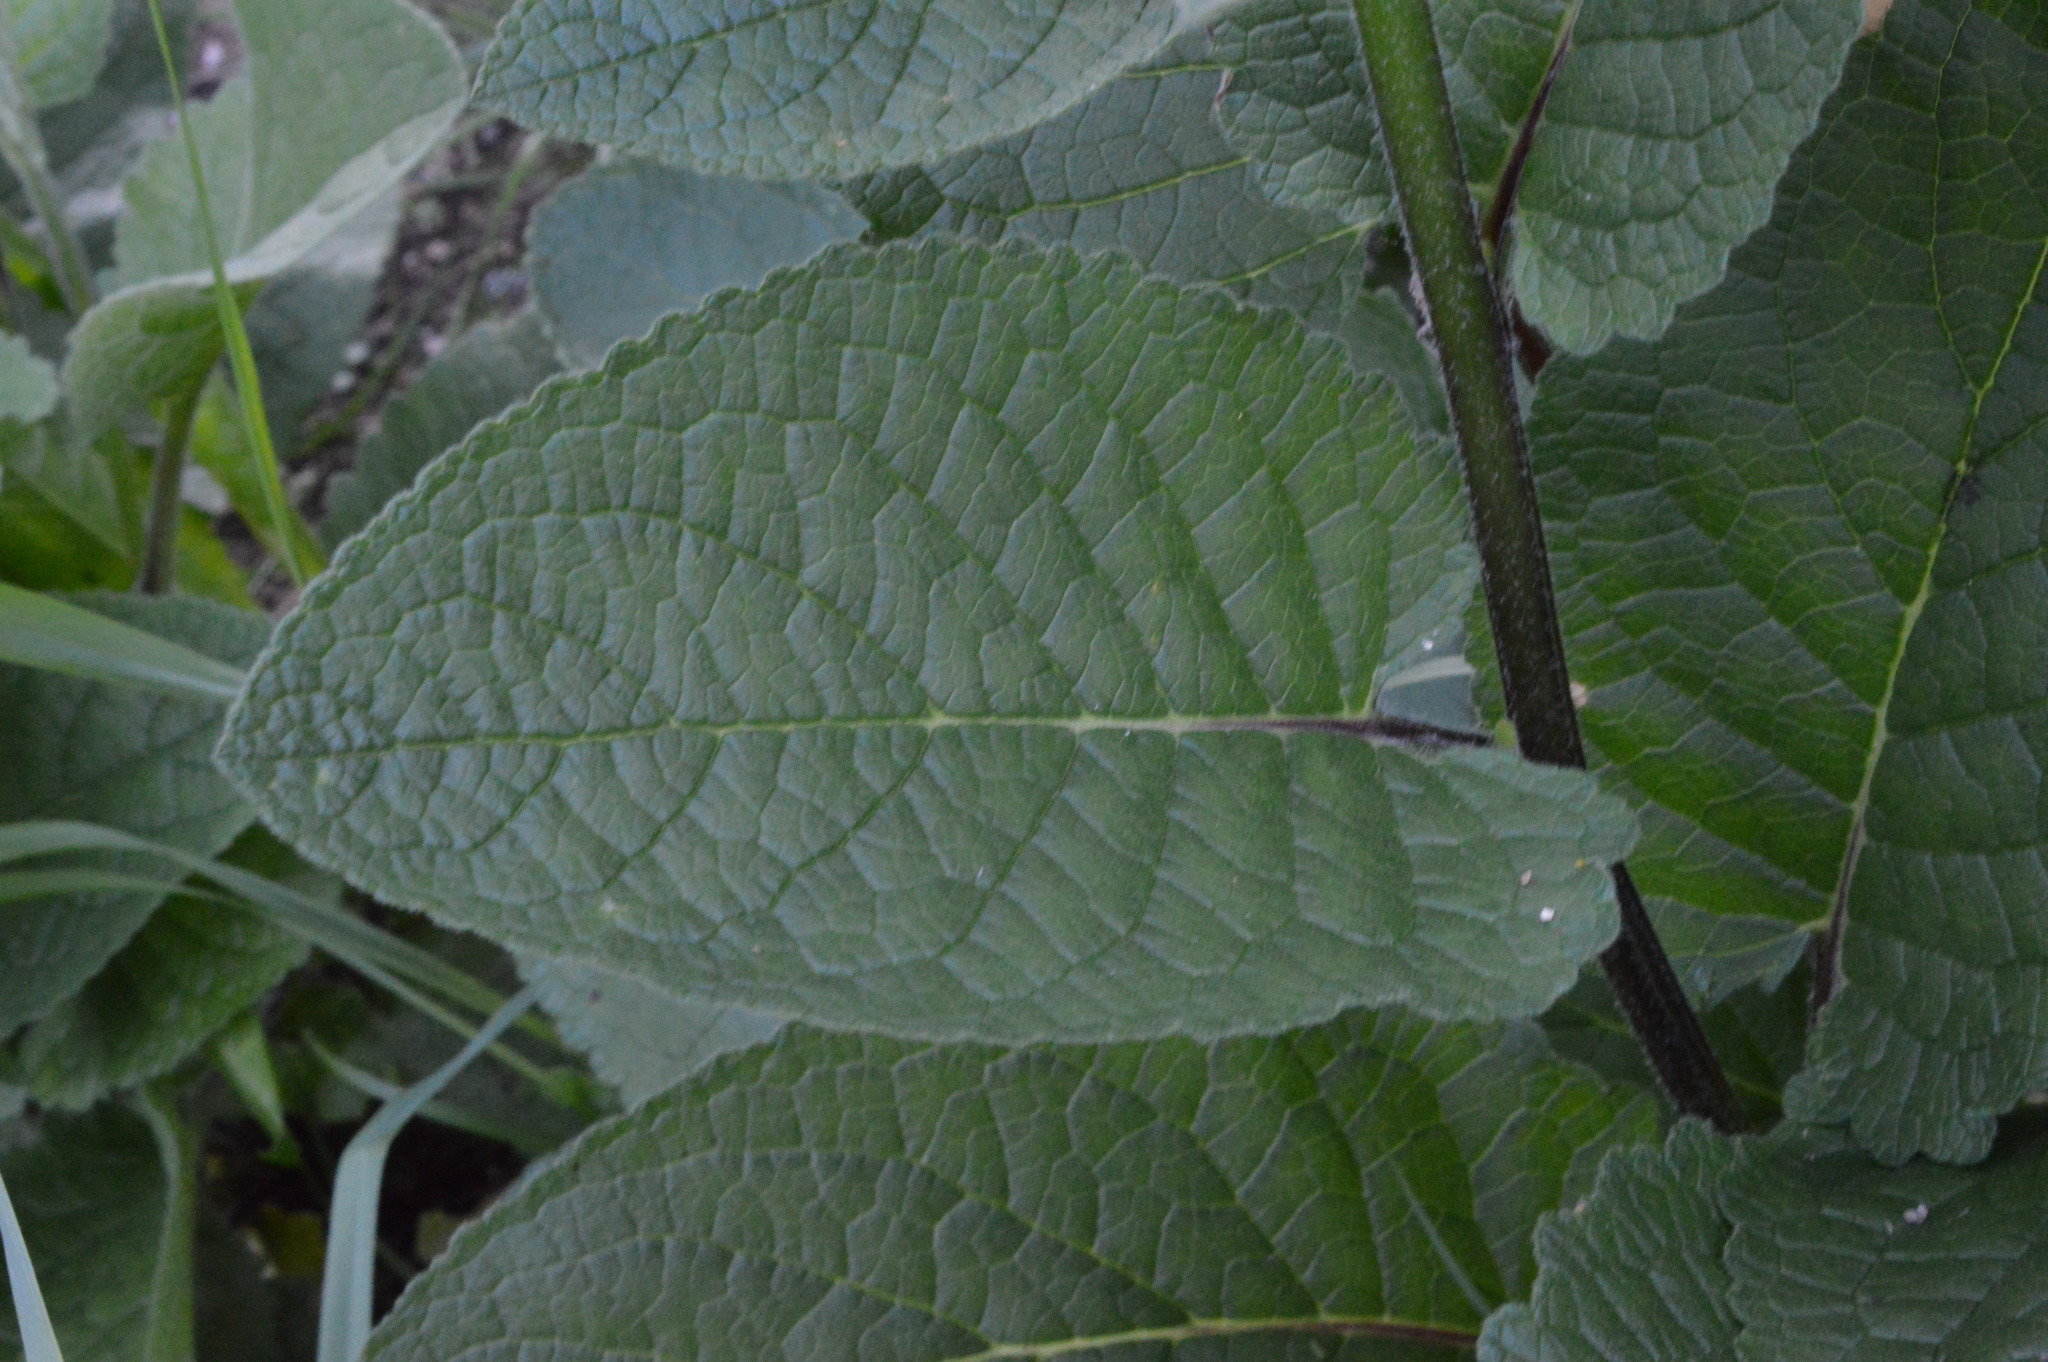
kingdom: Plantae
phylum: Tracheophyta
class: Magnoliopsida
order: Lamiales
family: Scrophulariaceae
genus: Verbascum
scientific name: Verbascum alpinum
